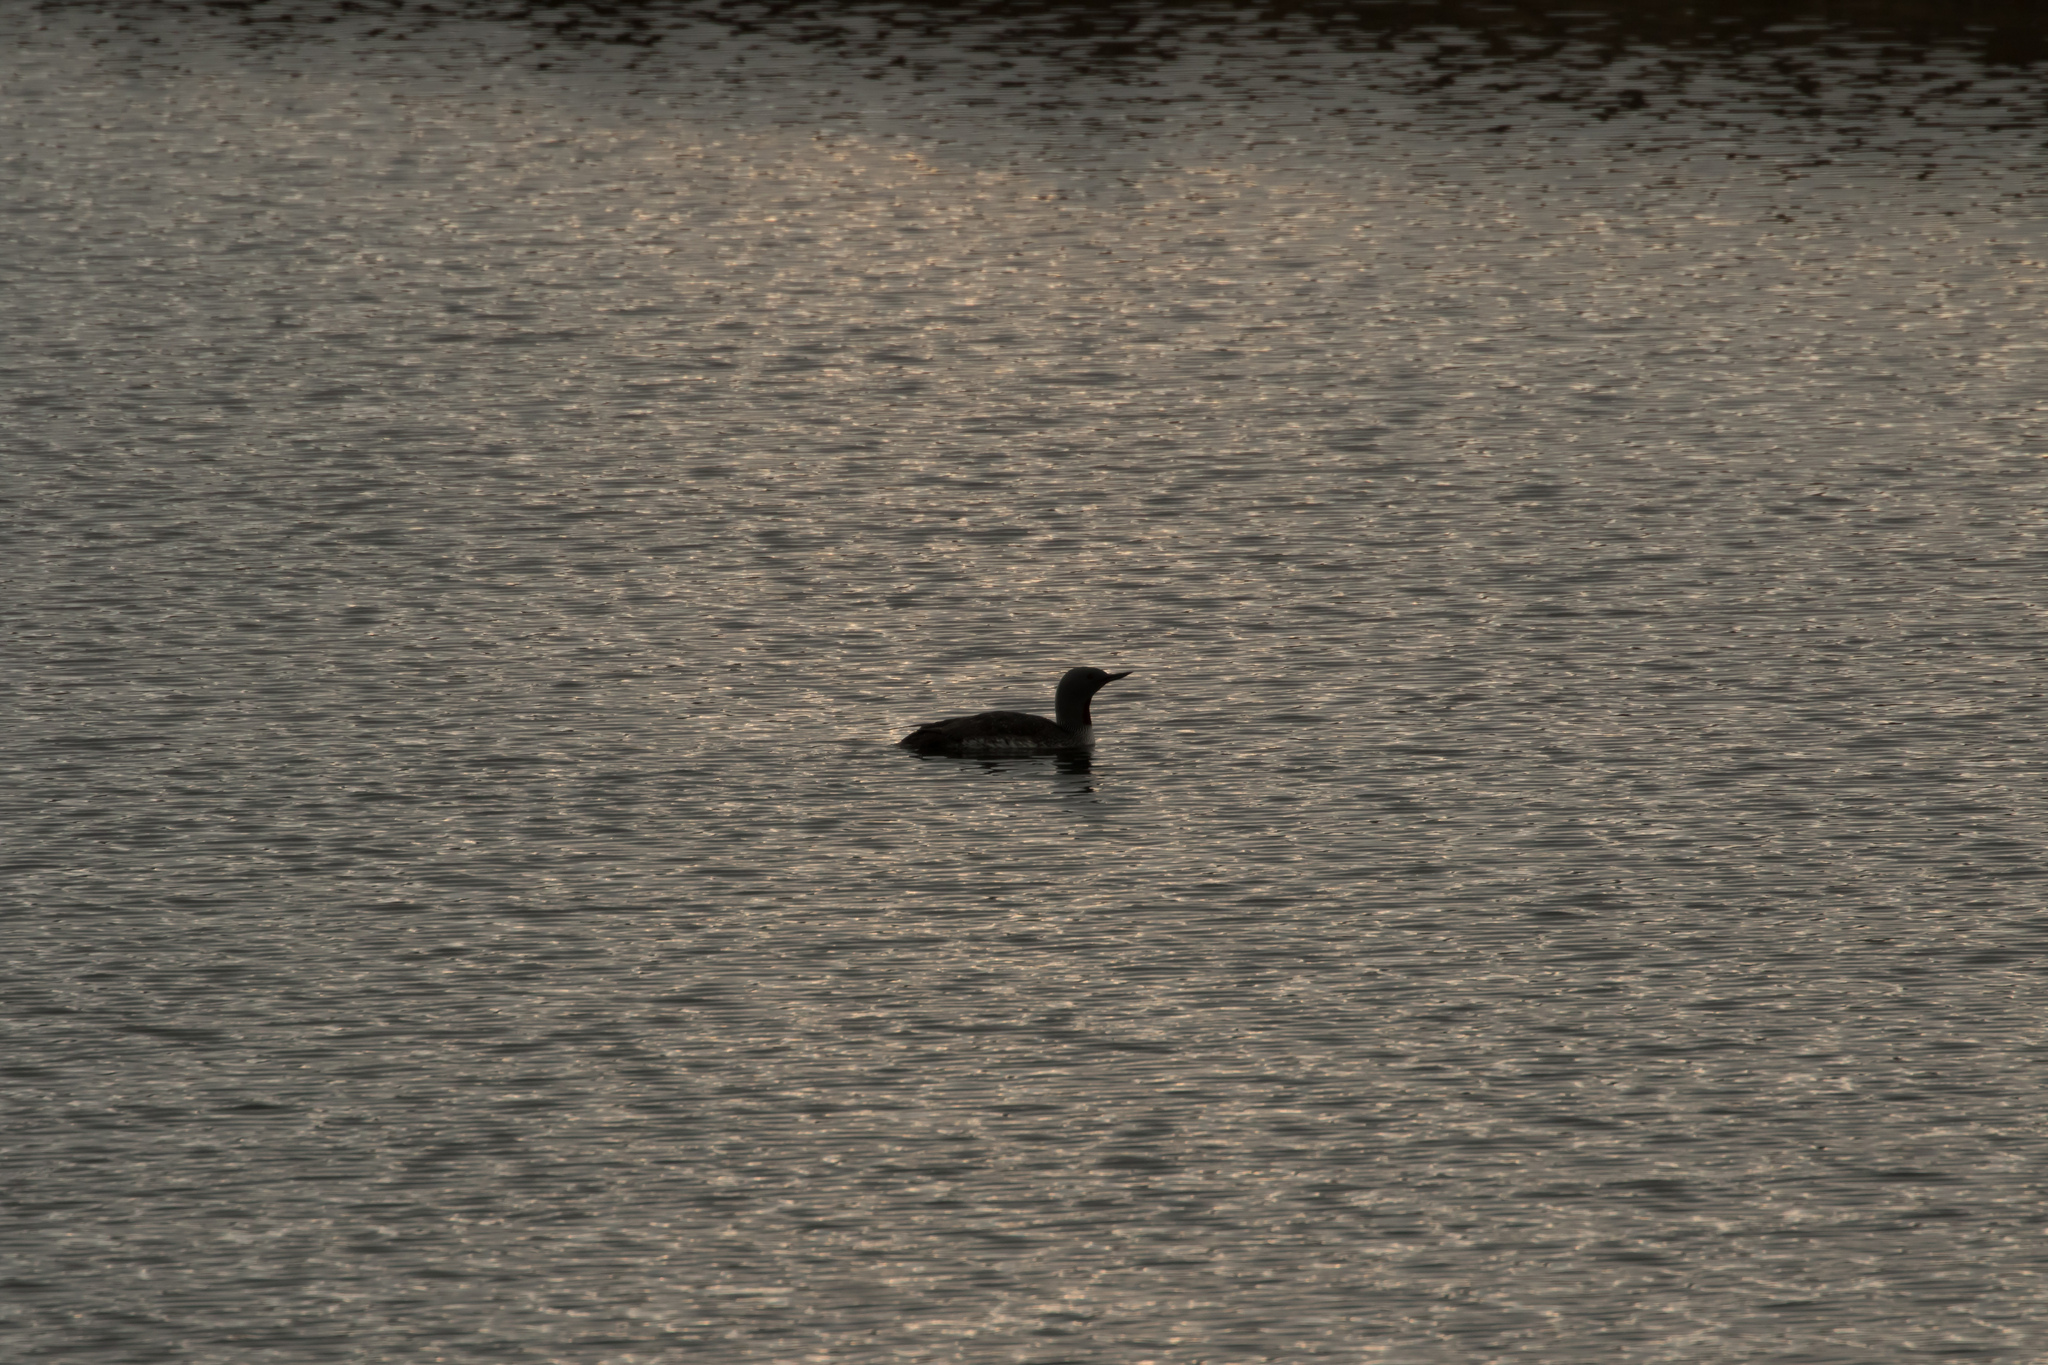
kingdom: Animalia
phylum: Chordata
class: Aves
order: Gaviiformes
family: Gaviidae
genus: Gavia
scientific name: Gavia stellata
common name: Red-throated loon
